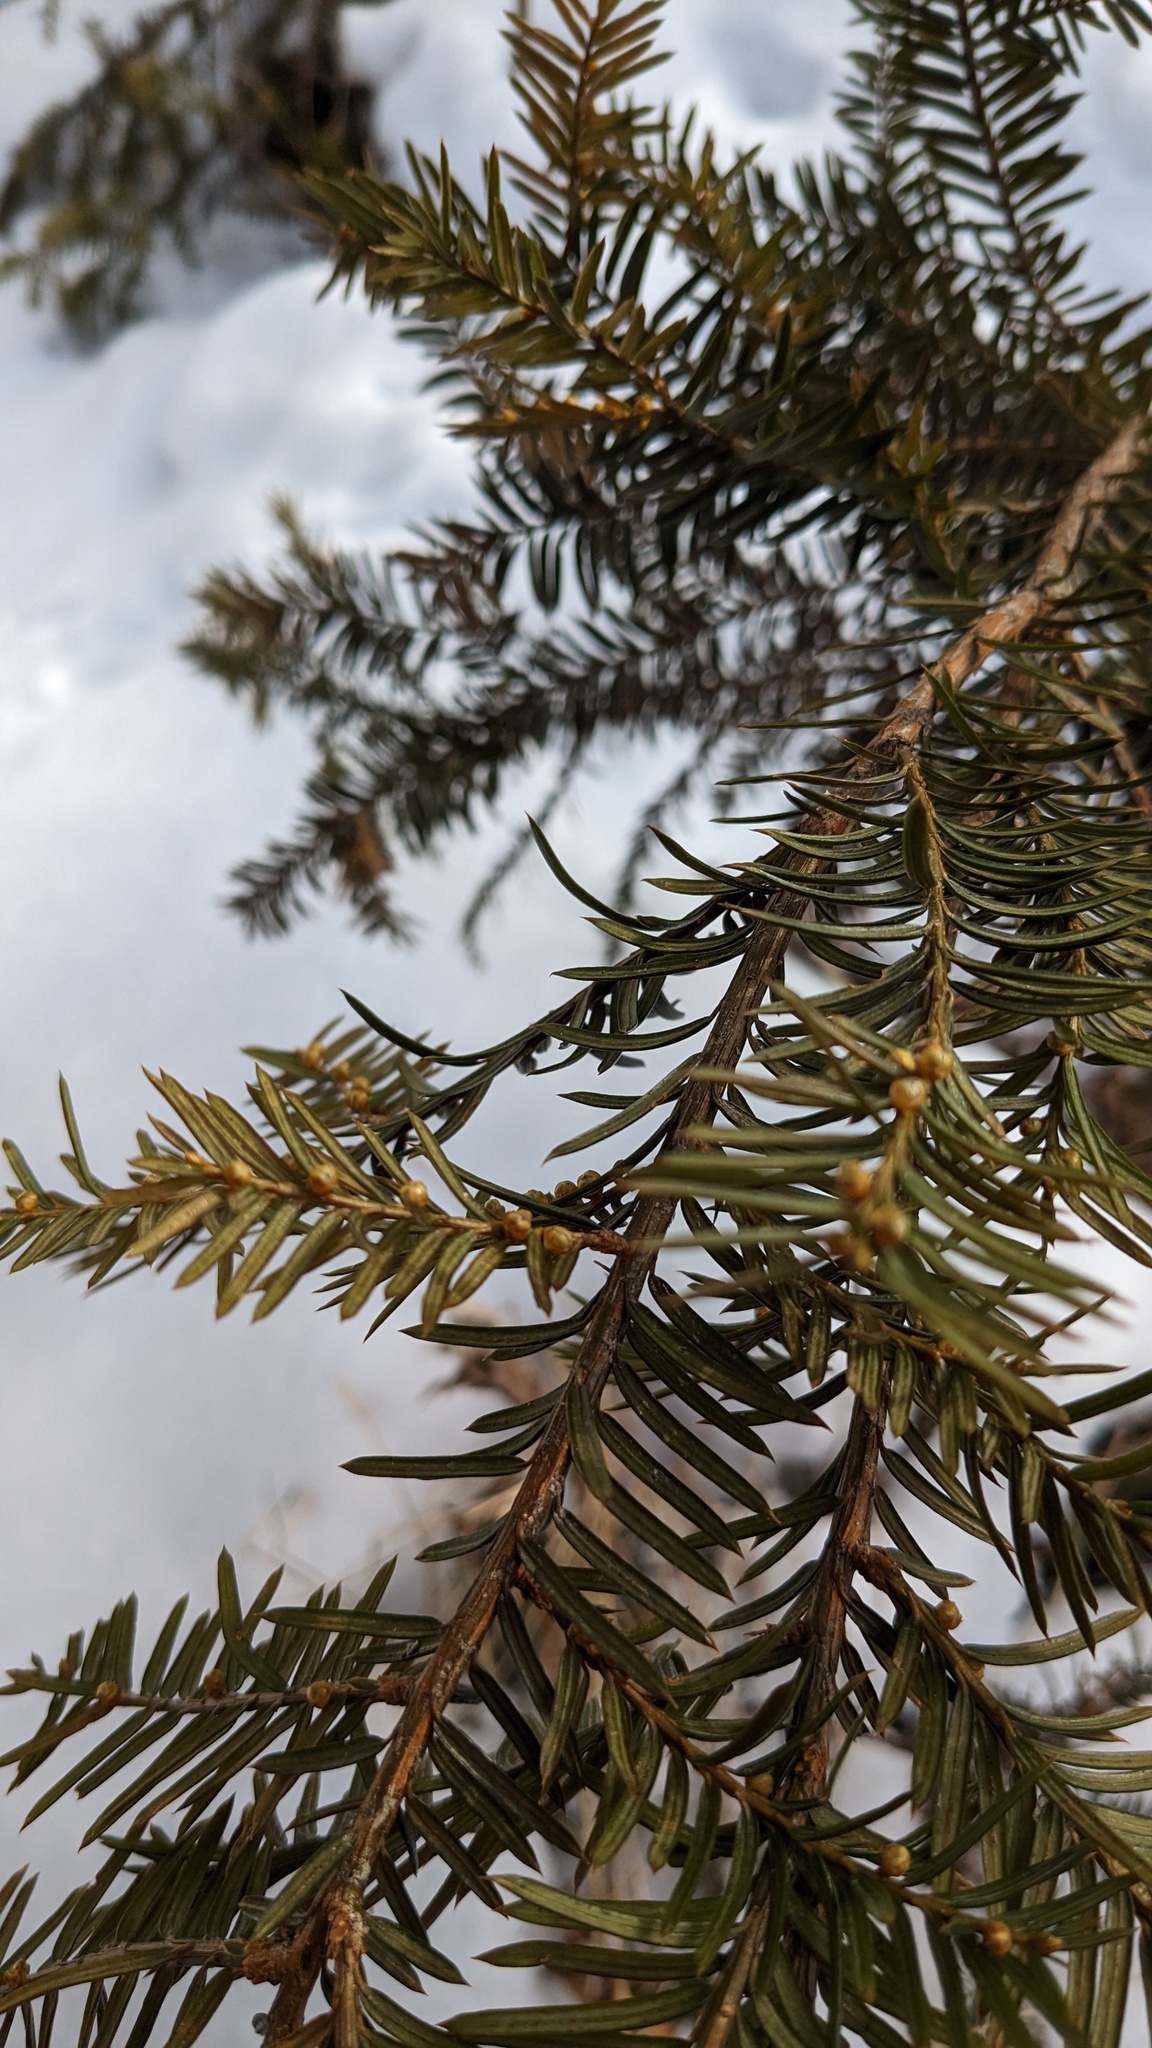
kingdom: Plantae
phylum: Tracheophyta
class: Pinopsida
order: Pinales
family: Taxaceae
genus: Taxus
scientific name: Taxus canadensis
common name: American yew
